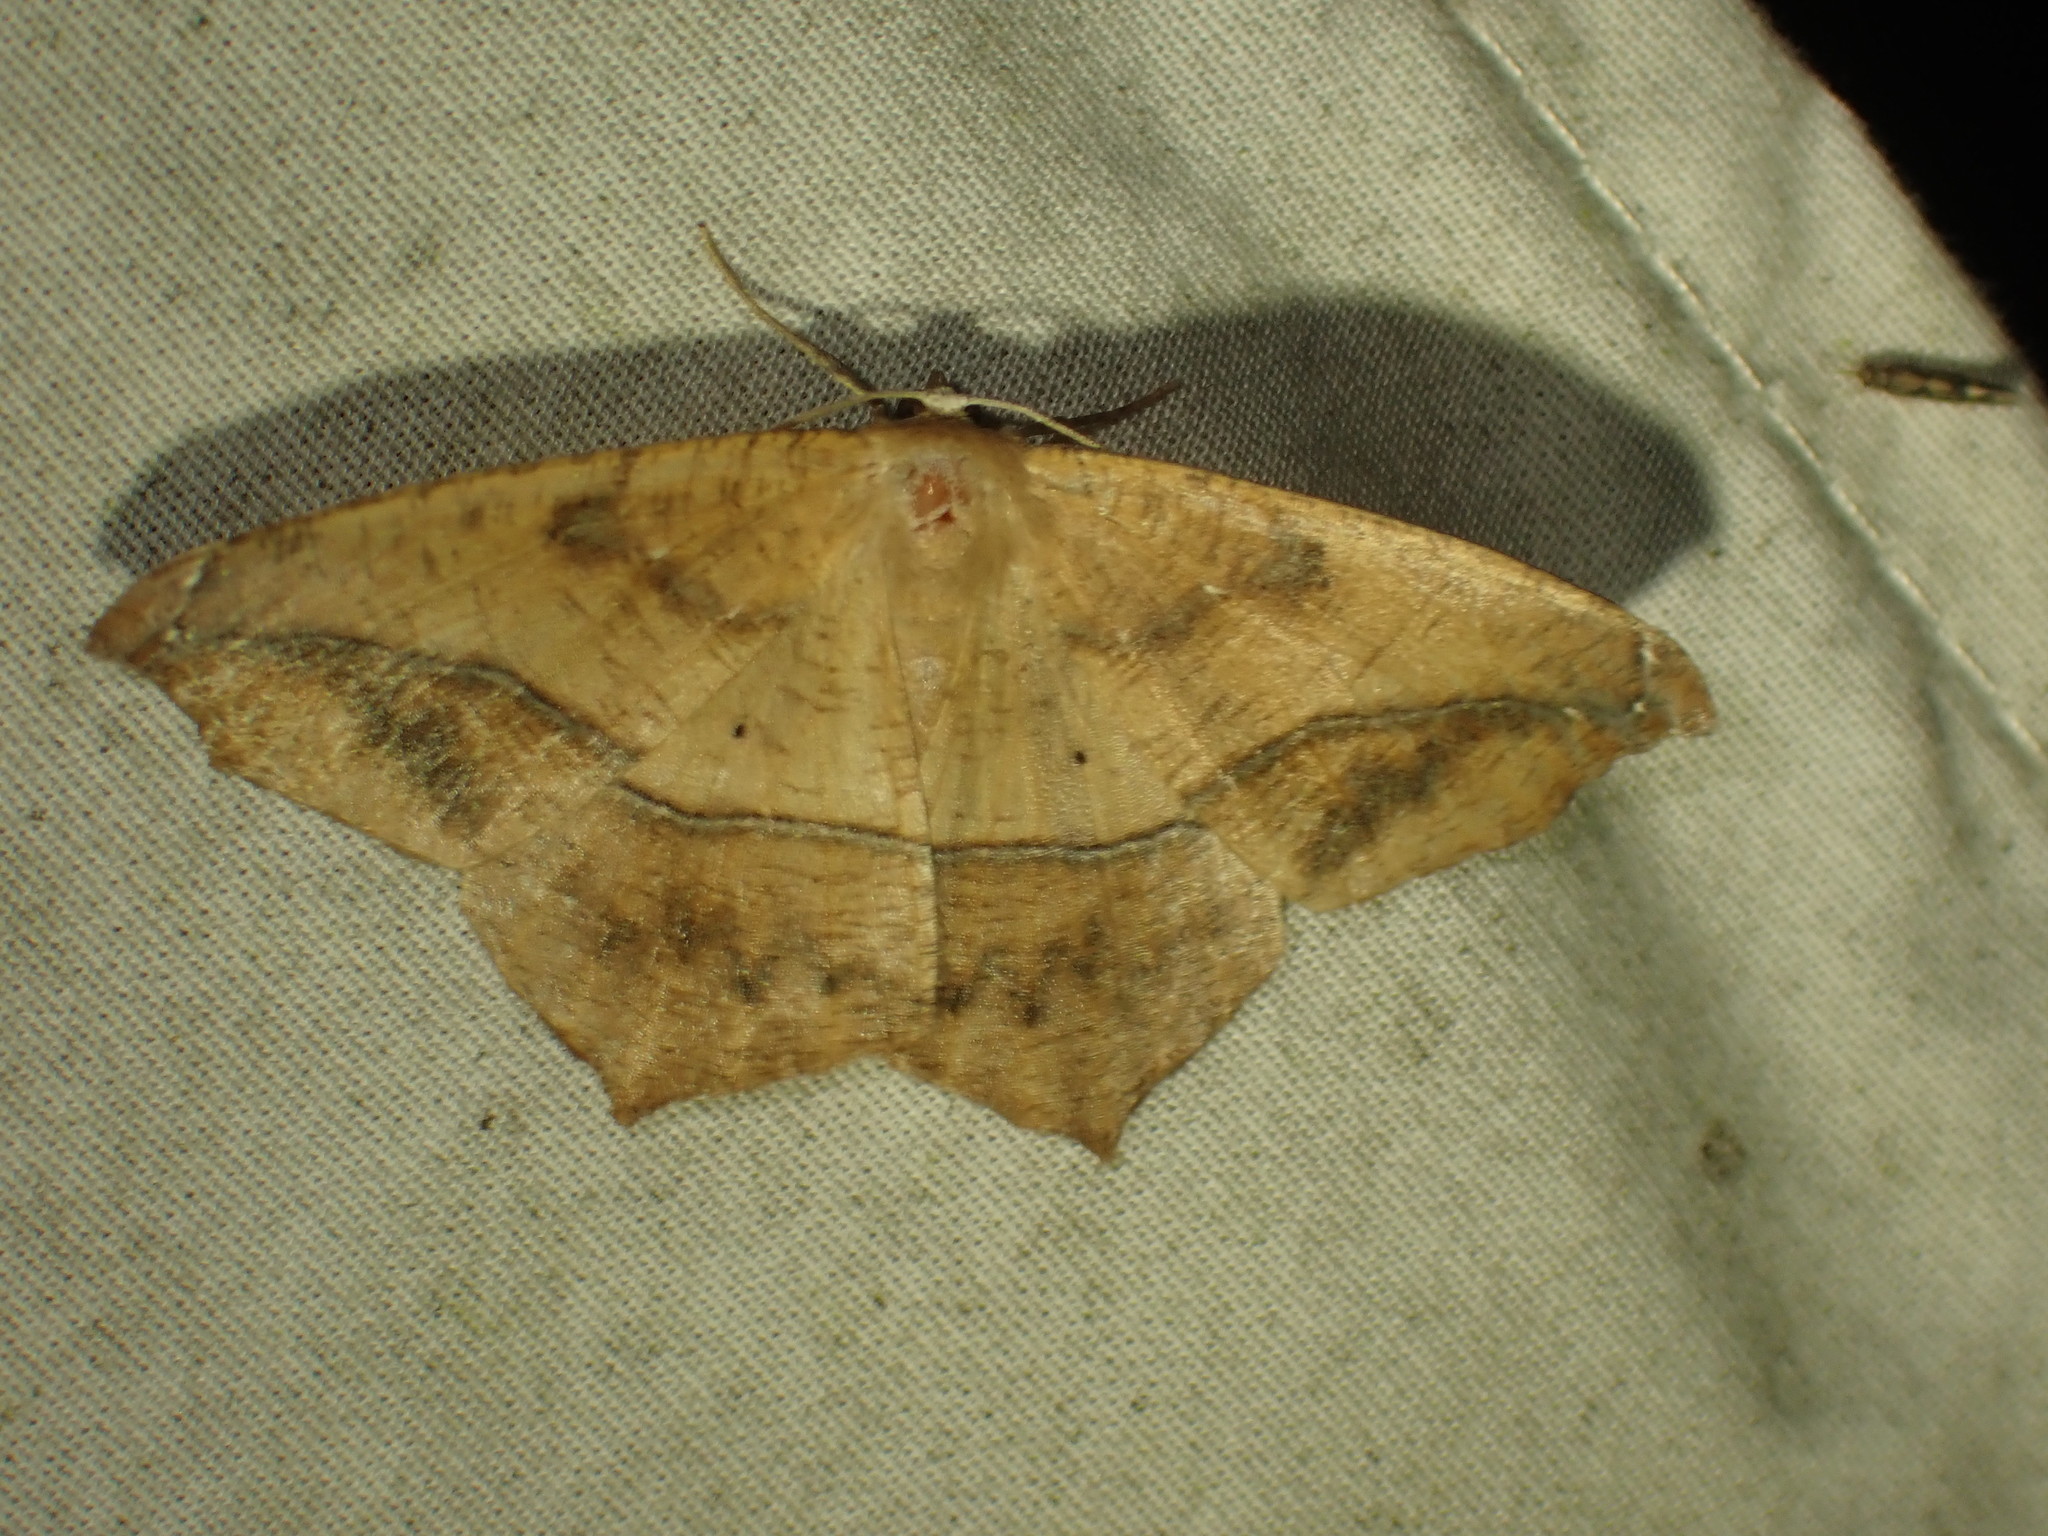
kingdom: Animalia
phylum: Arthropoda
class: Insecta
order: Lepidoptera
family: Geometridae
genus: Prochoerodes
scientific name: Prochoerodes lineola
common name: Large maple spanworm
